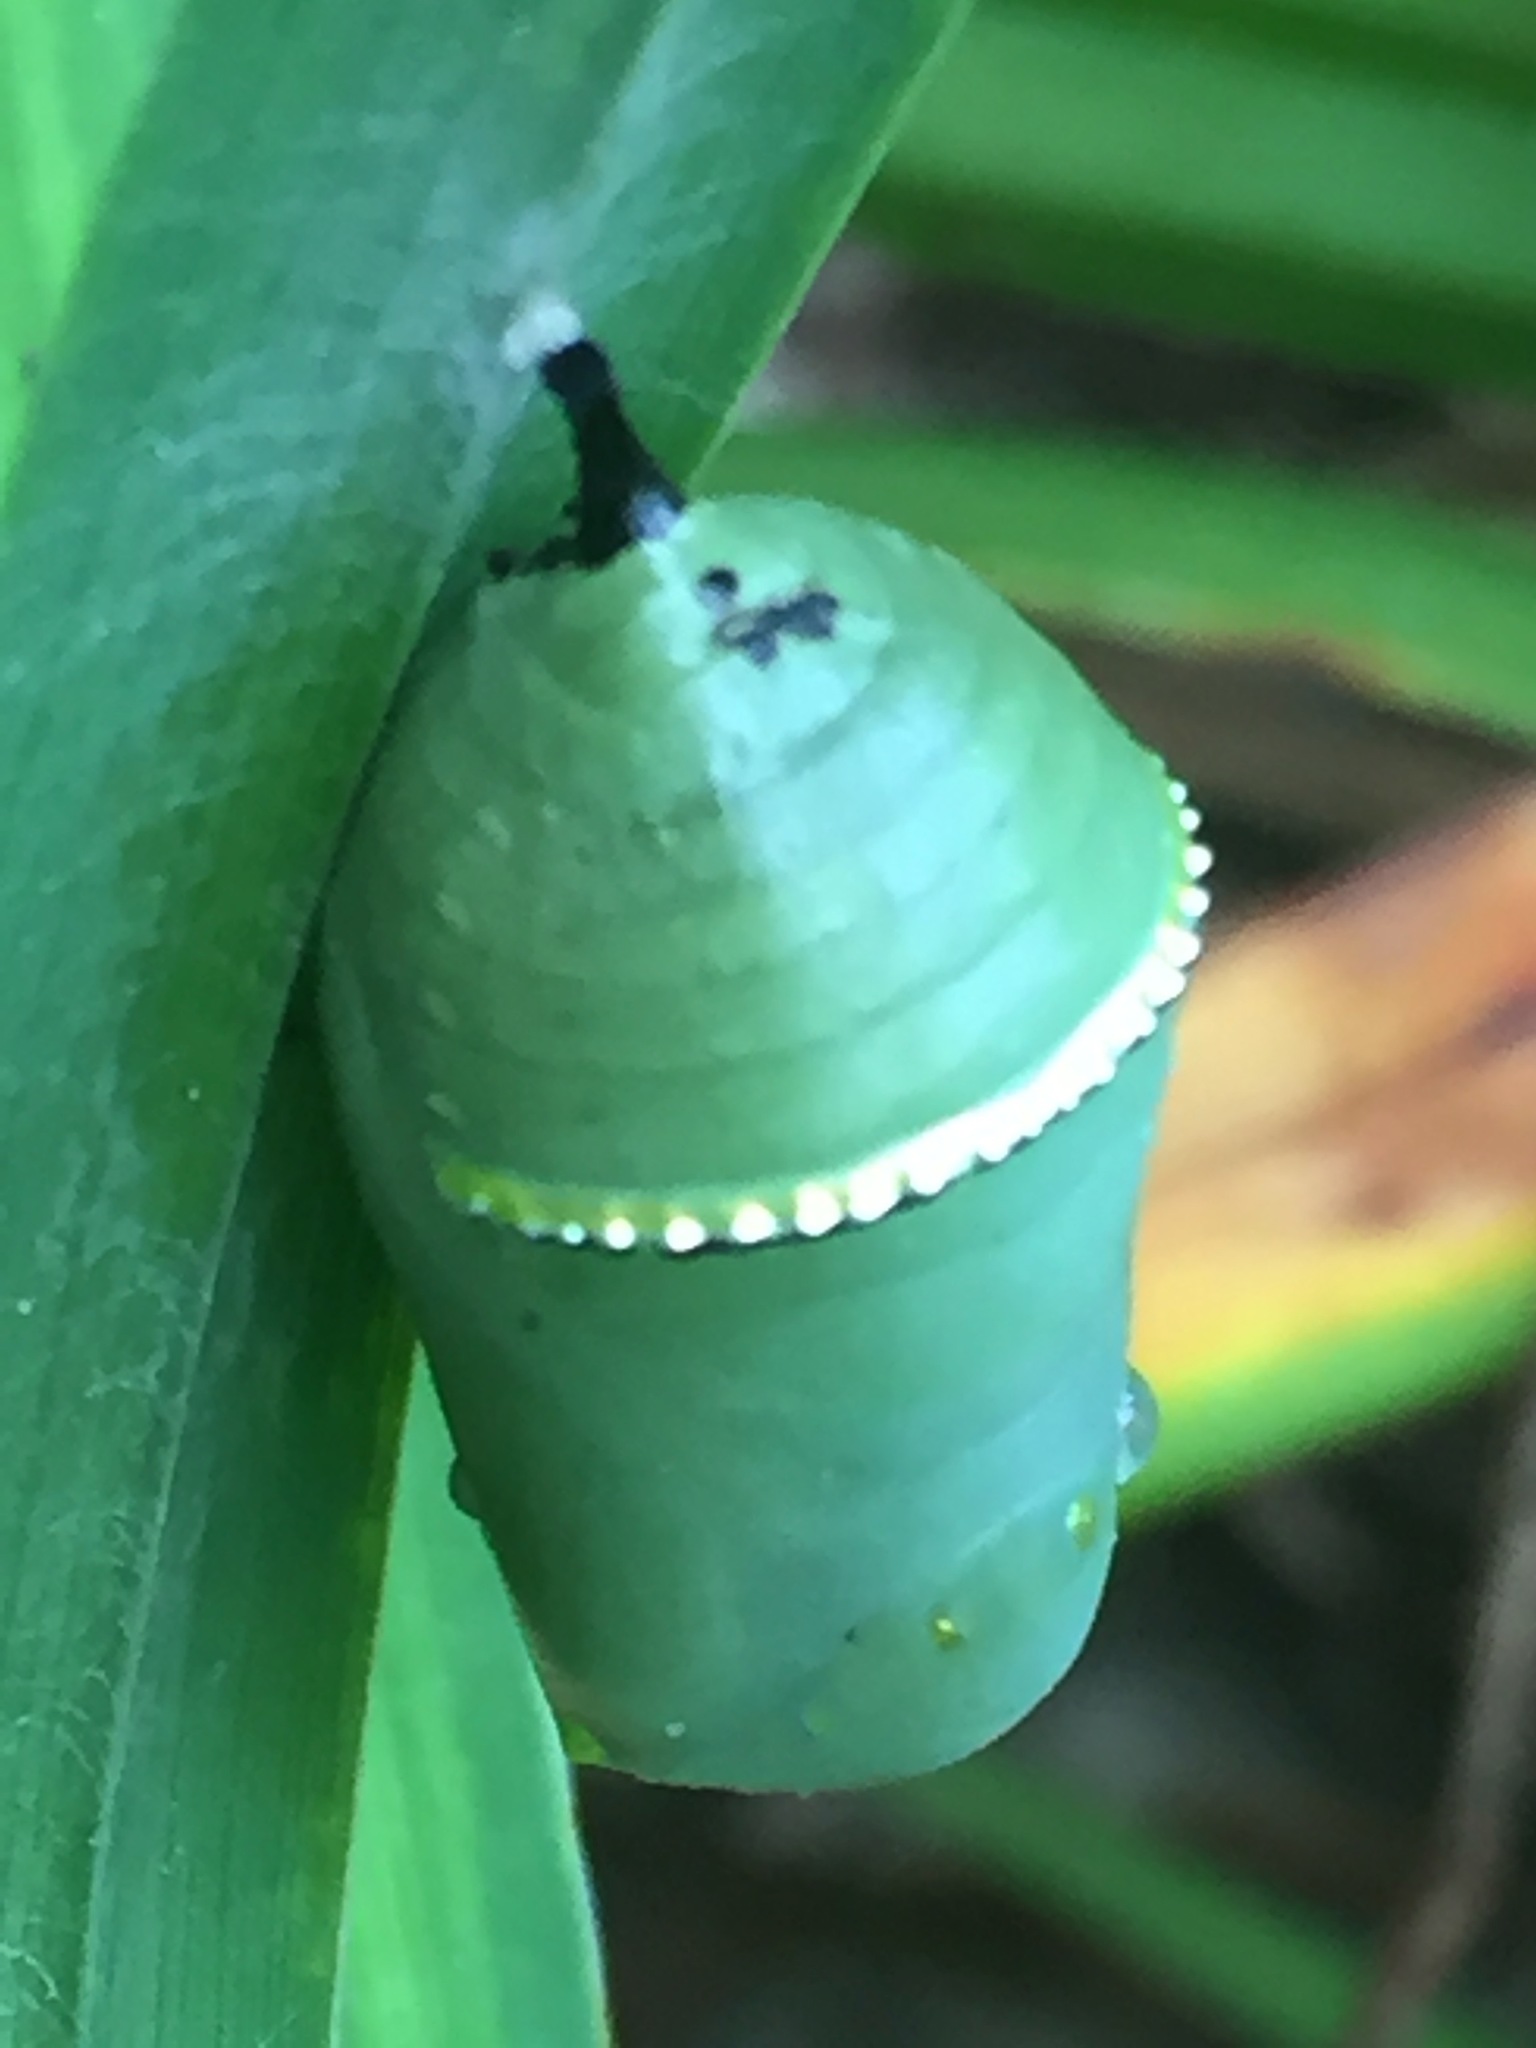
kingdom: Animalia
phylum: Arthropoda
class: Insecta
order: Lepidoptera
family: Nymphalidae
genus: Danaus
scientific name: Danaus plexippus
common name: Monarch
